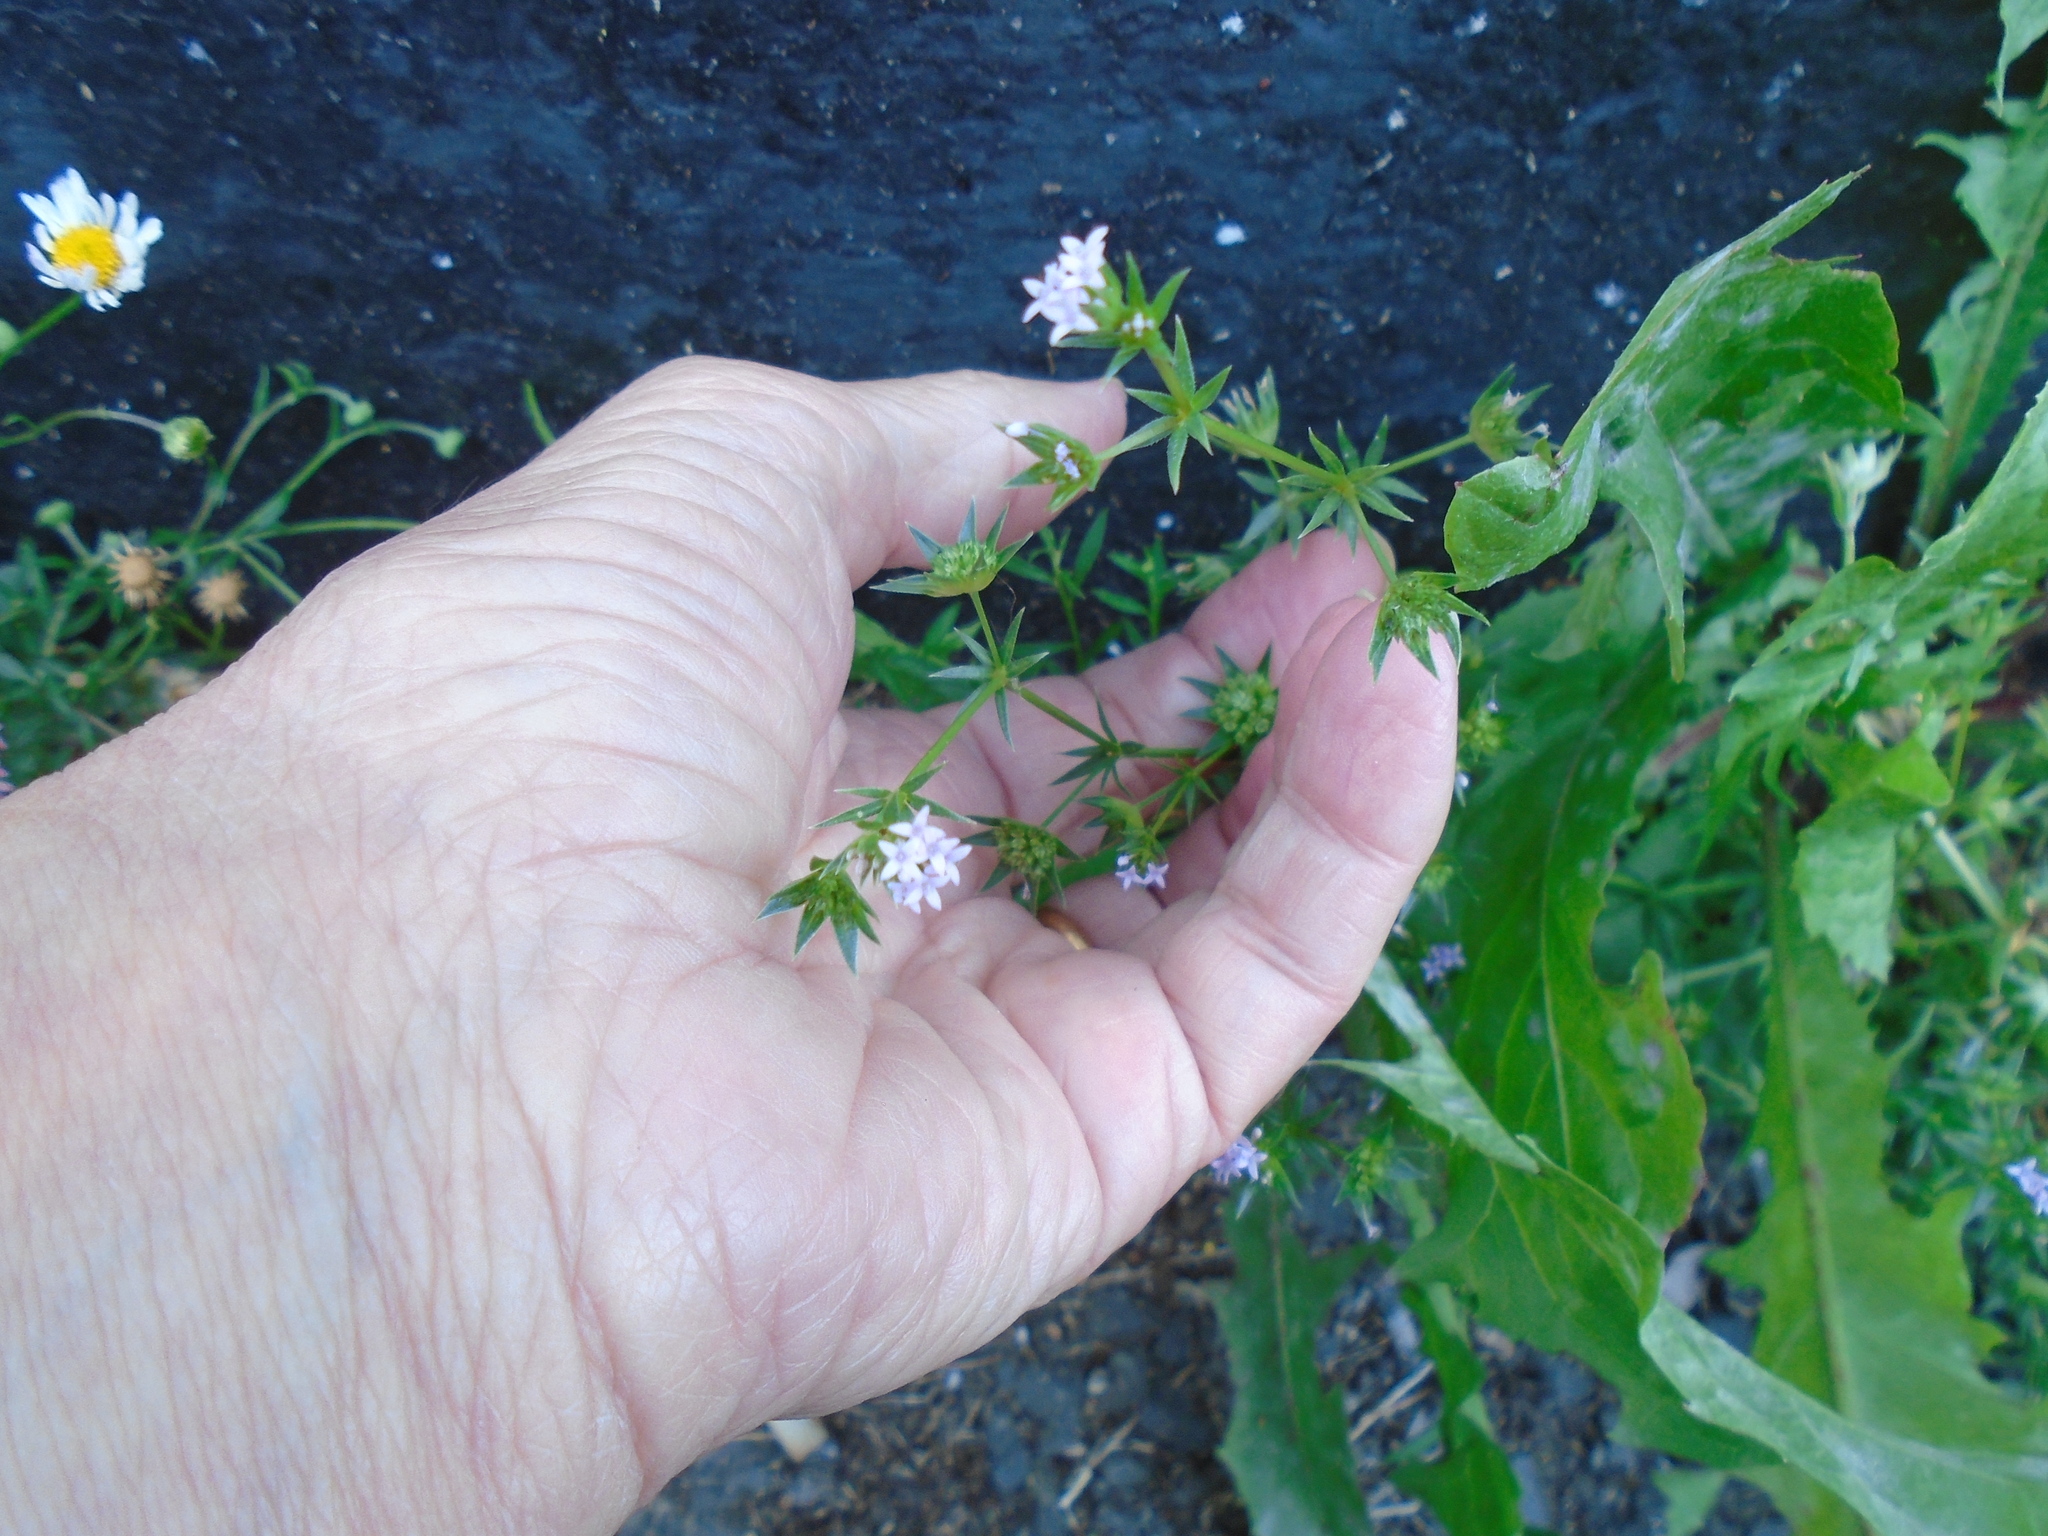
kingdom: Plantae
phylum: Tracheophyta
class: Magnoliopsida
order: Gentianales
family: Rubiaceae
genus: Sherardia
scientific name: Sherardia arvensis
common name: Field madder
